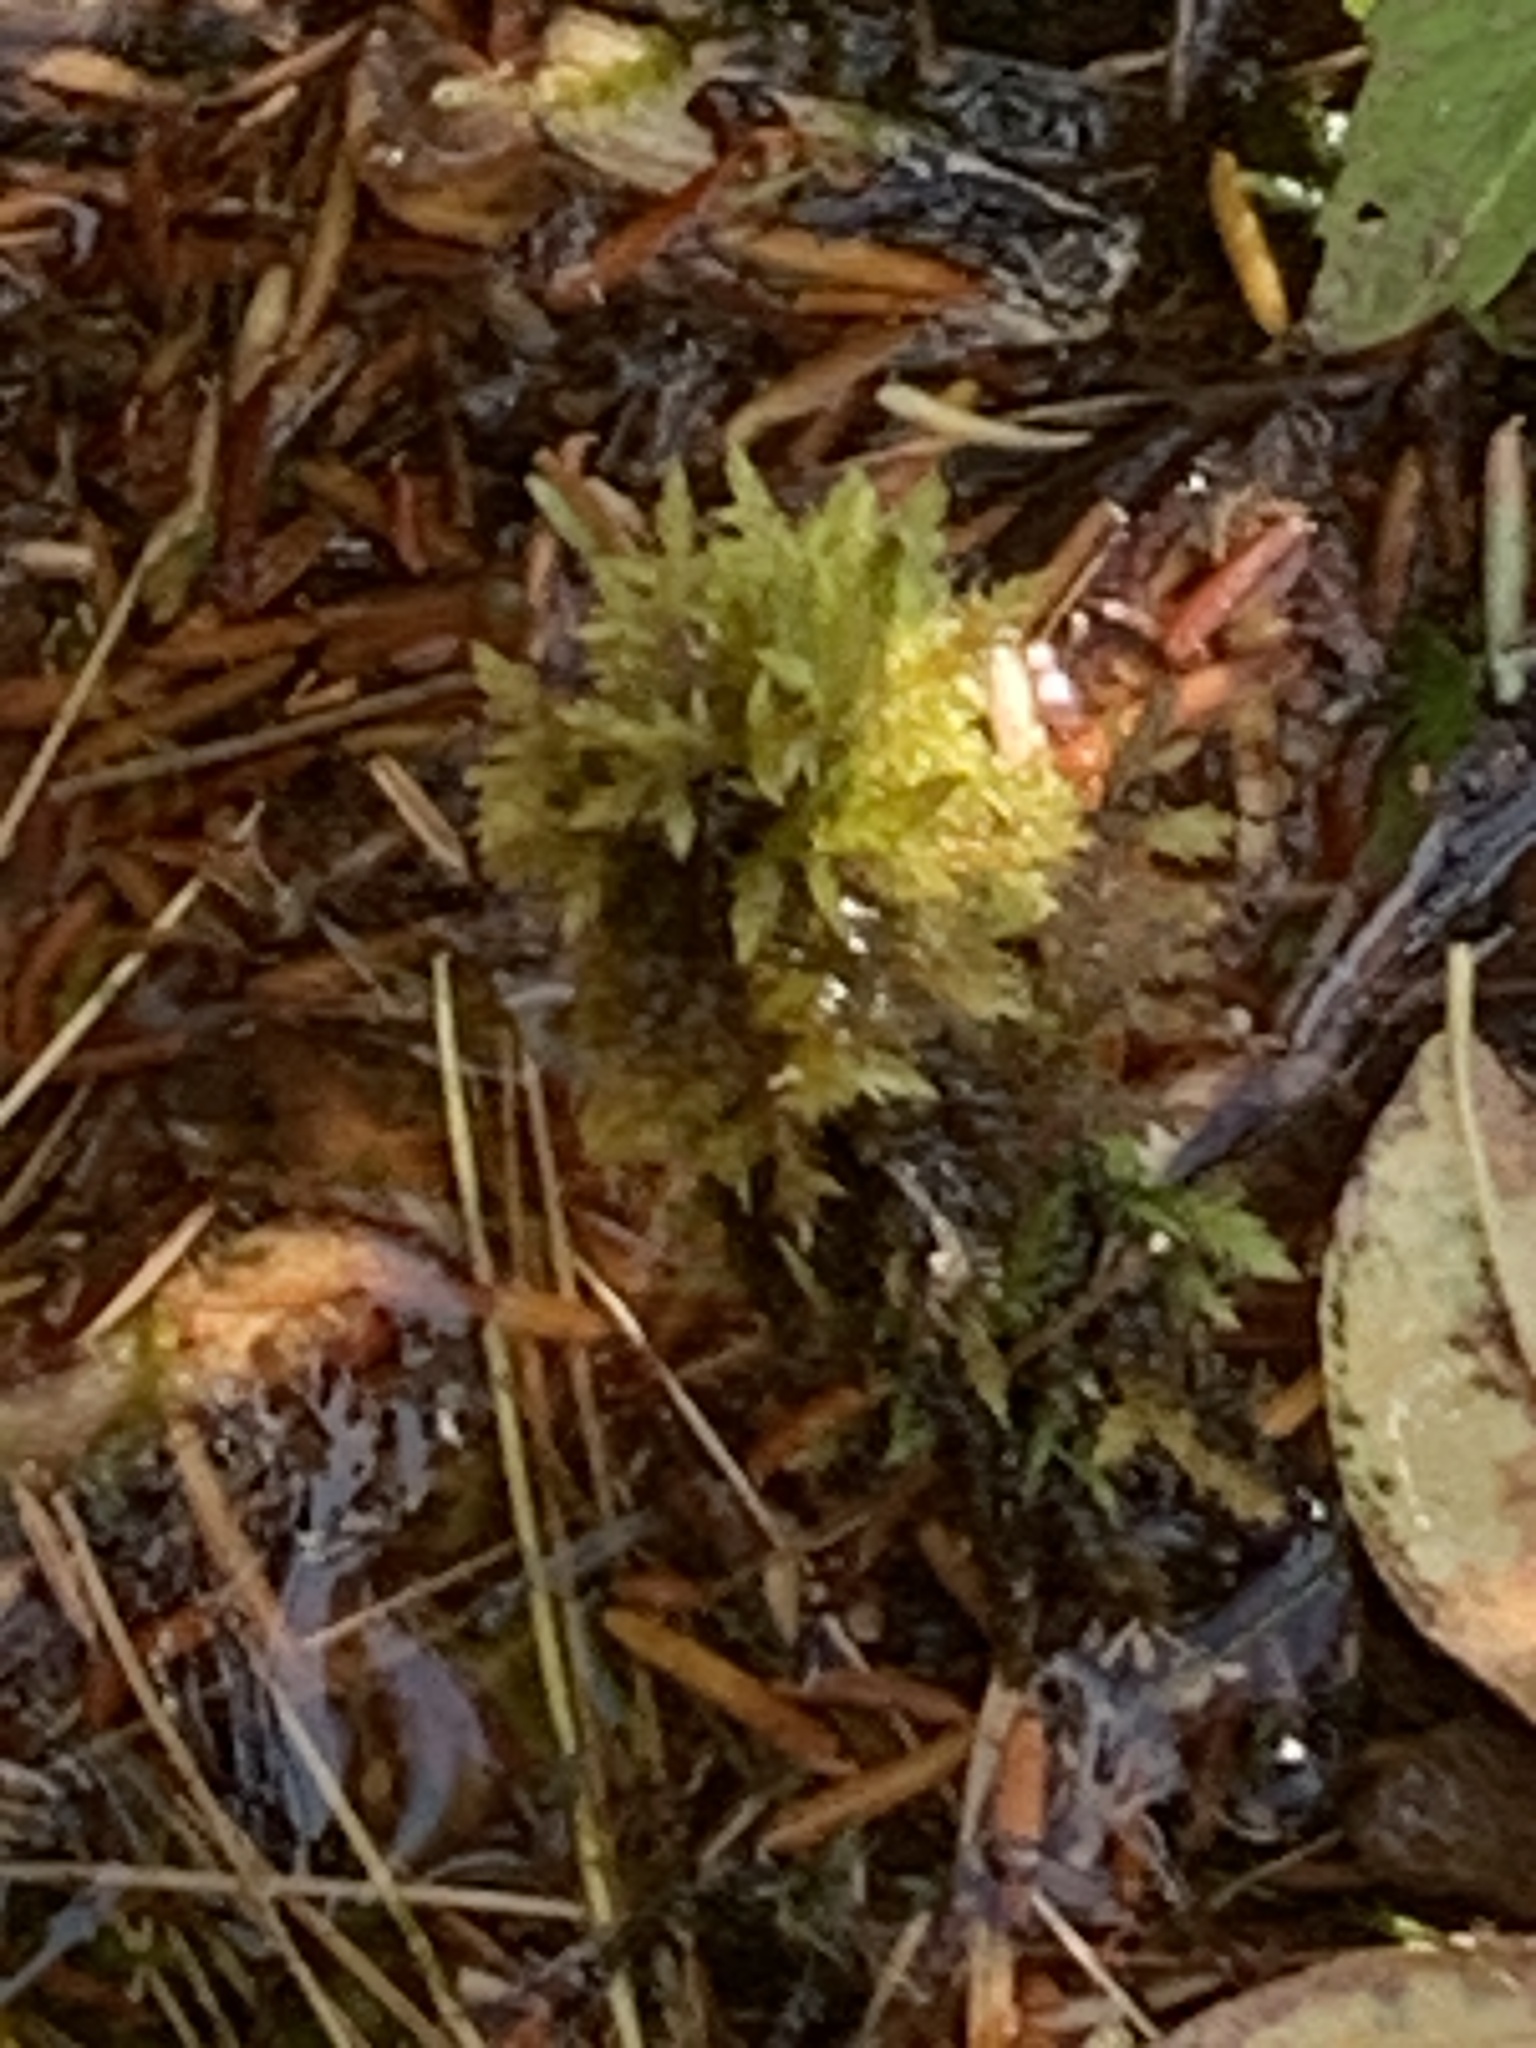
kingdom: Plantae
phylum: Bryophyta
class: Sphagnopsida
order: Sphagnales
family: Sphagnaceae
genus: Sphagnum
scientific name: Sphagnum
